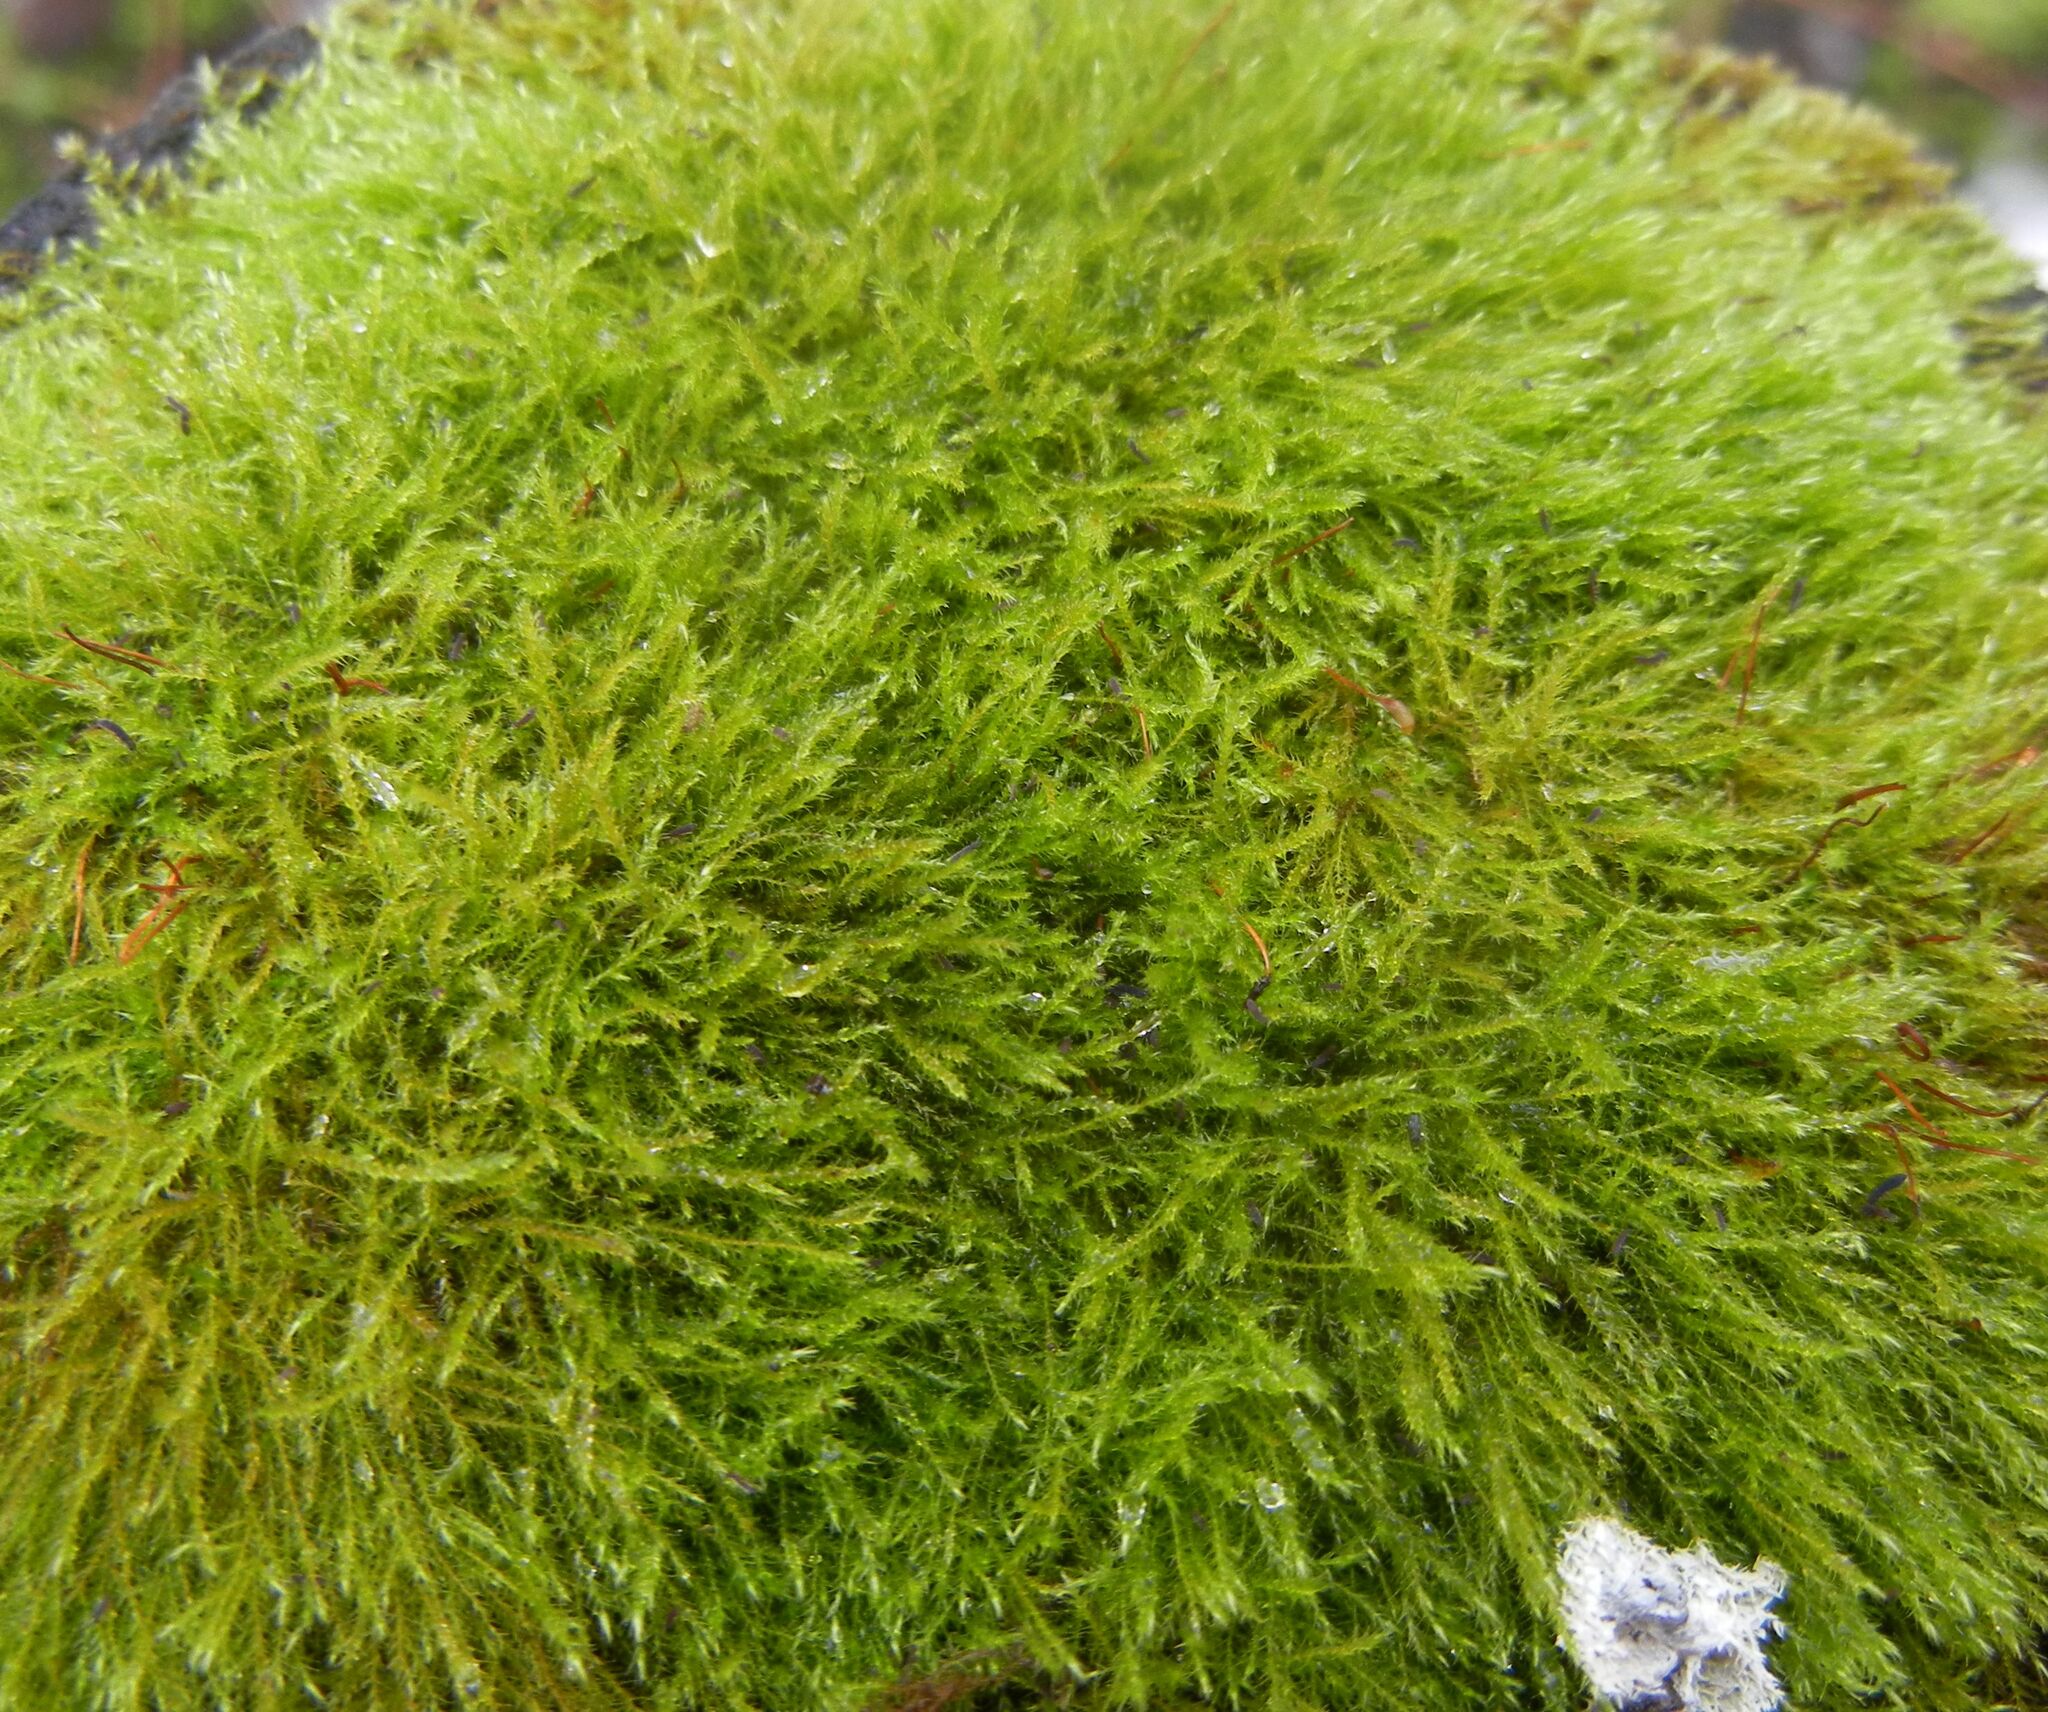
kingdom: Plantae
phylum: Bryophyta
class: Bryopsida
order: Hypnales
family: Amblystegiaceae
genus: Amblystegium
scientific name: Amblystegium serpens
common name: Jurkatzka's feather moss
